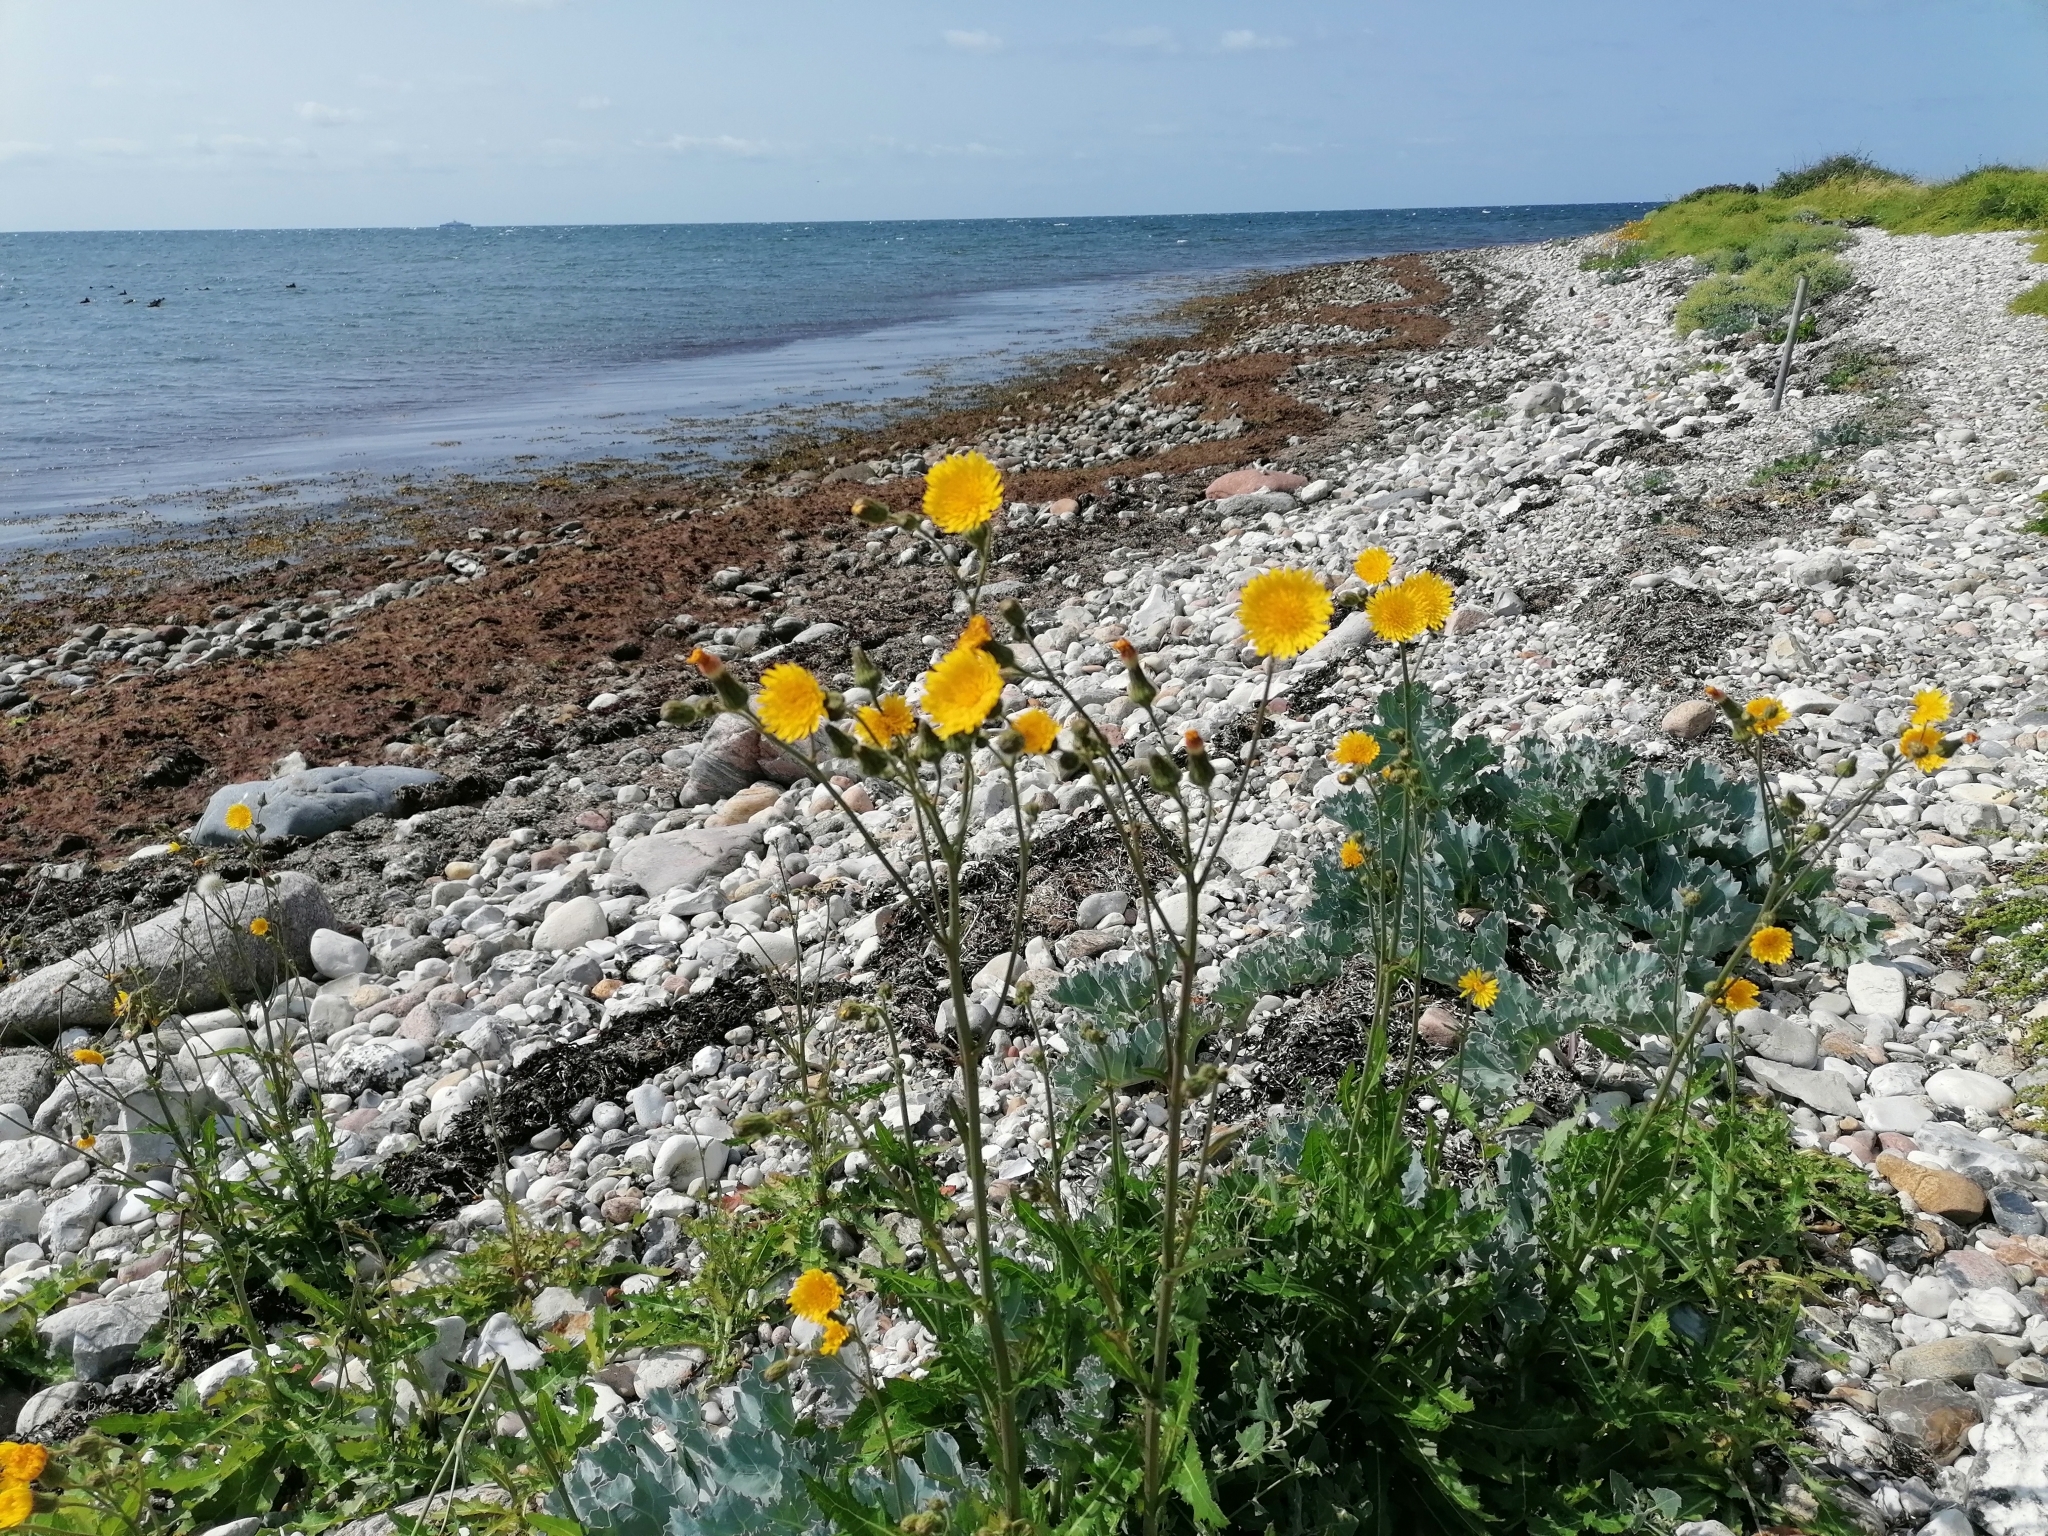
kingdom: Plantae
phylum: Tracheophyta
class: Magnoliopsida
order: Asterales
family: Asteraceae
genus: Sonchus
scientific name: Sonchus arvensis
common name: Perennial sow-thistle
